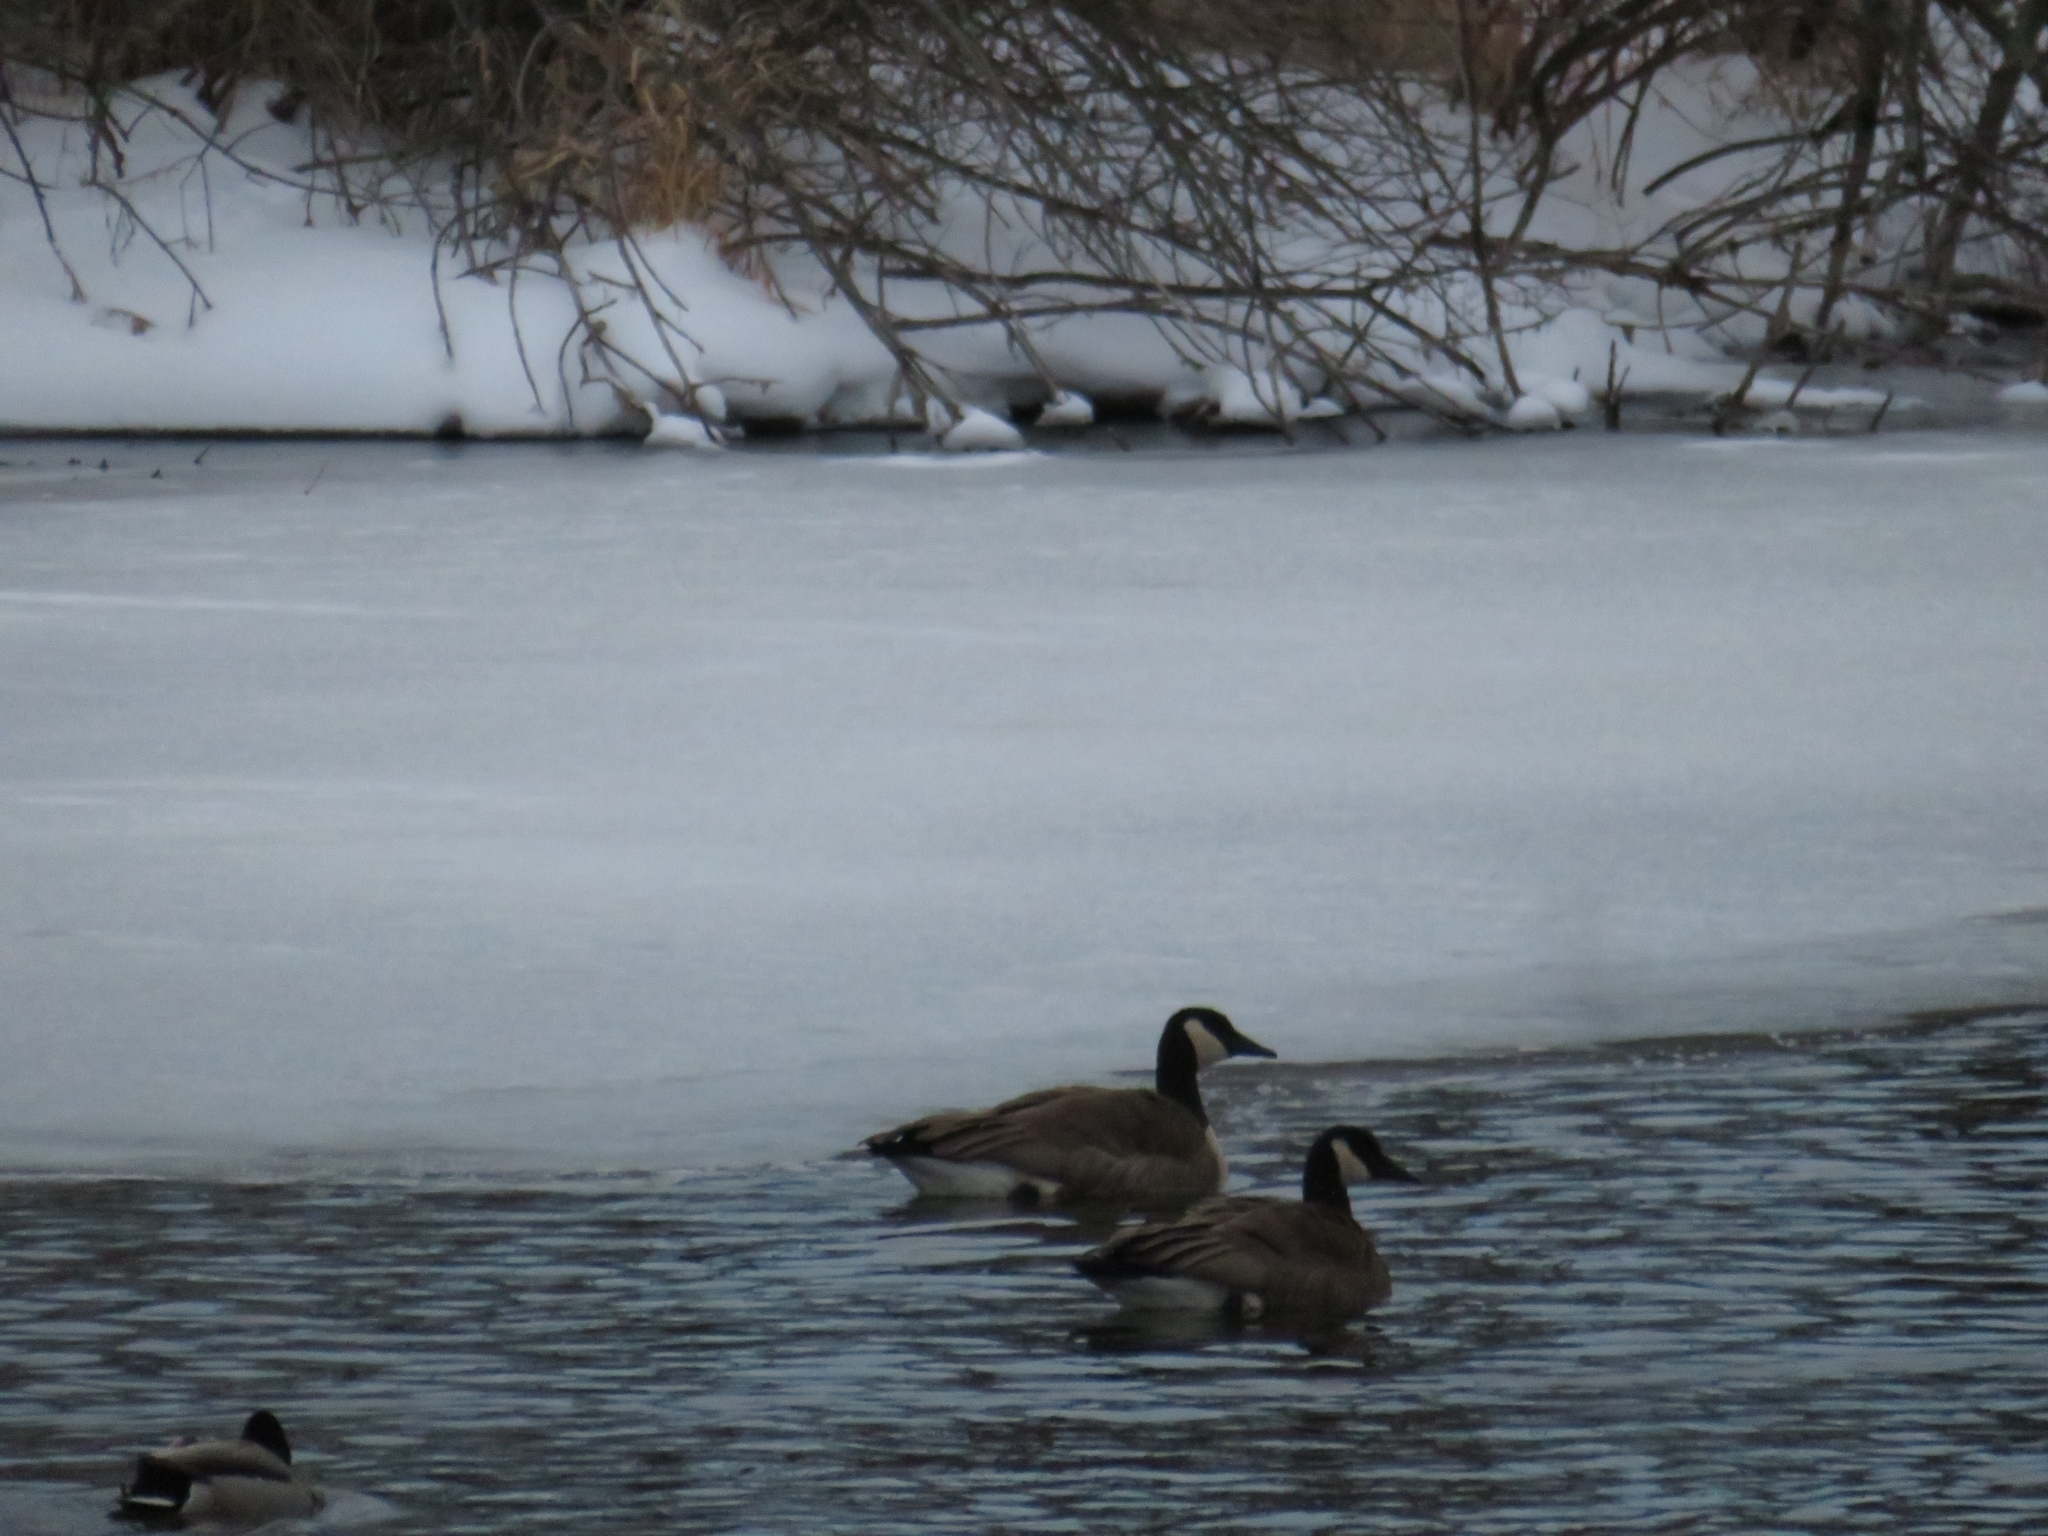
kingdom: Animalia
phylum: Chordata
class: Aves
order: Anseriformes
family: Anatidae
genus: Branta
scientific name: Branta canadensis
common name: Canada goose
